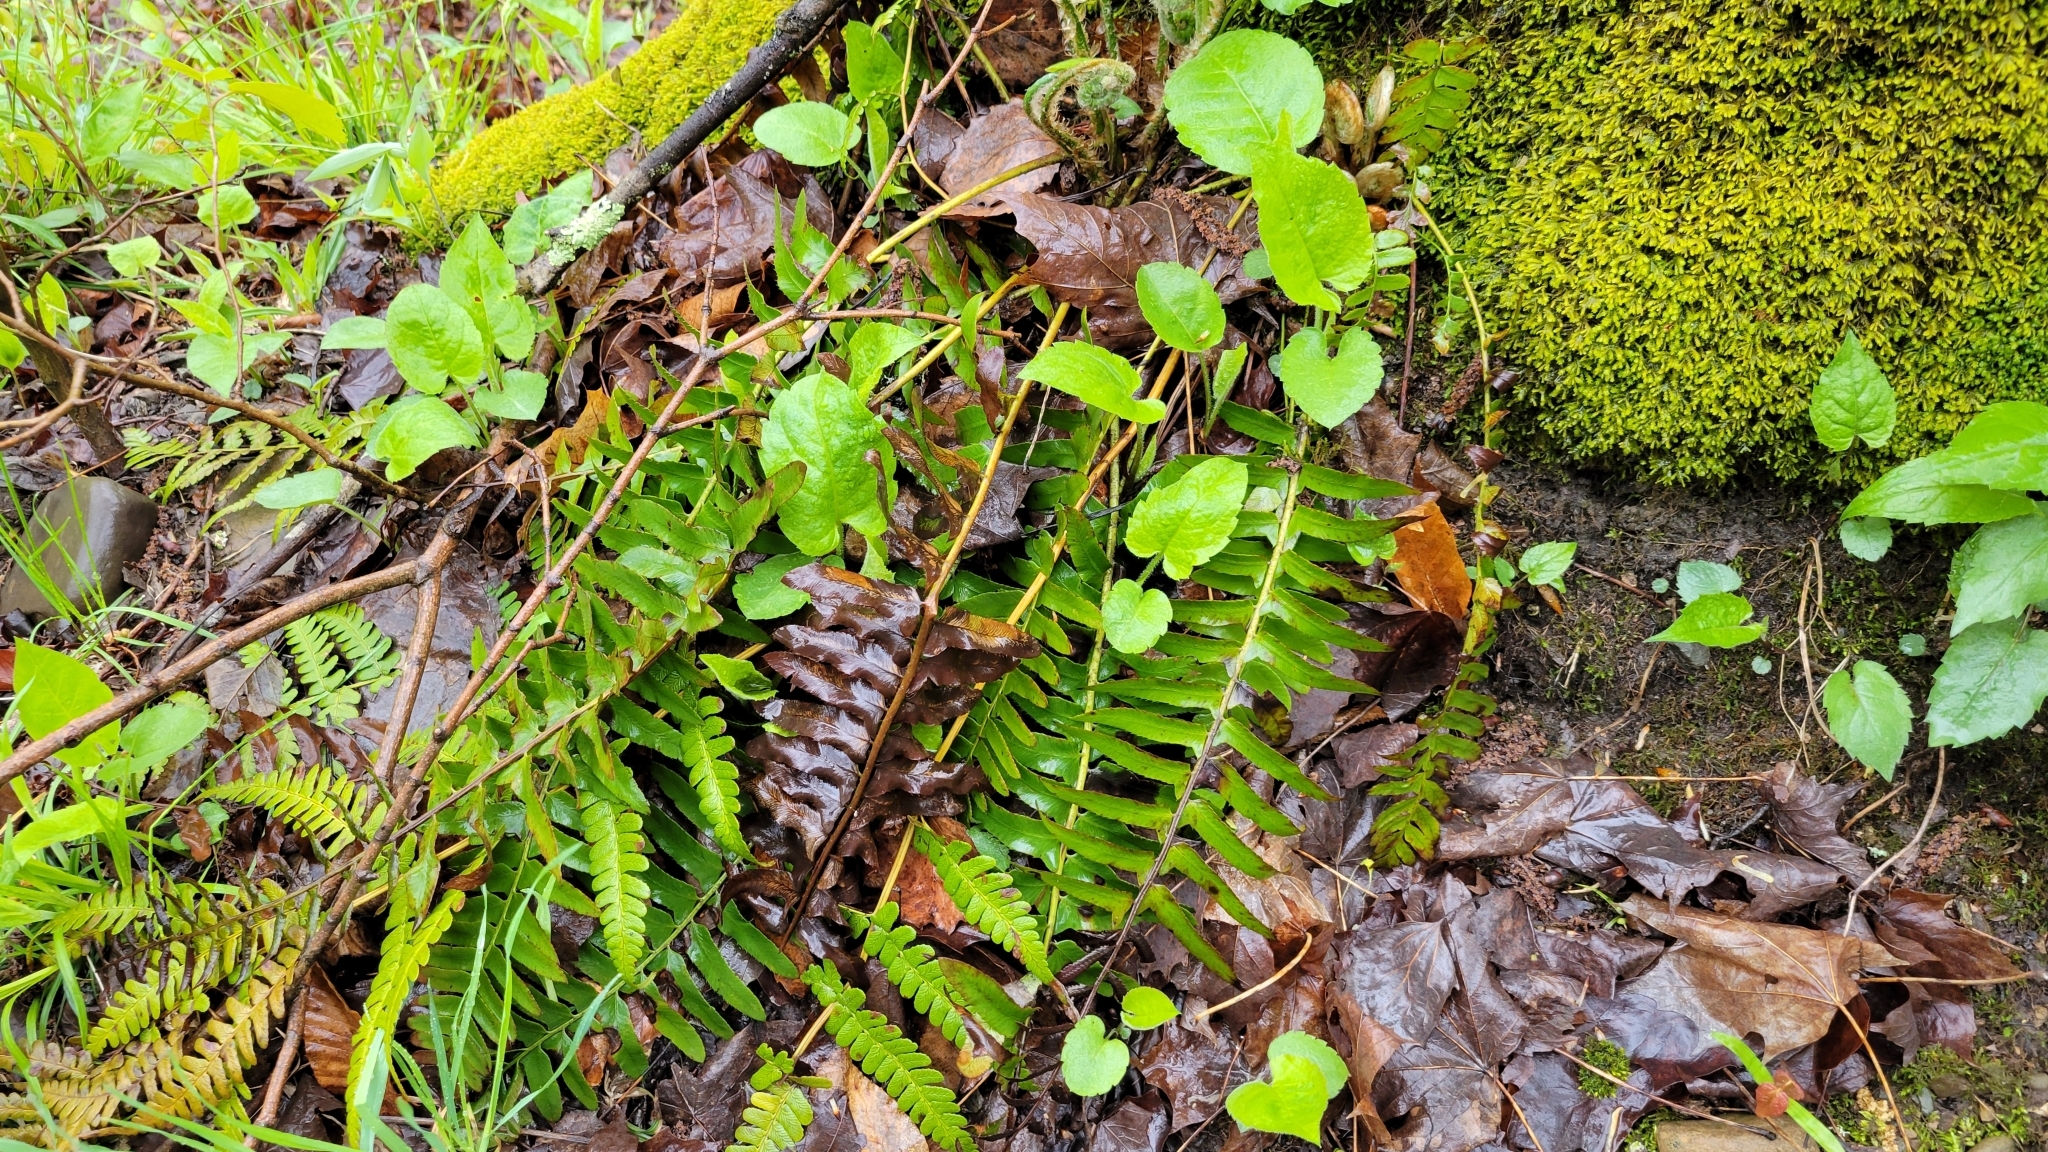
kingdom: Plantae
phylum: Tracheophyta
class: Polypodiopsida
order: Polypodiales
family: Dryopteridaceae
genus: Polystichum
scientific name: Polystichum acrostichoides
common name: Christmas fern
